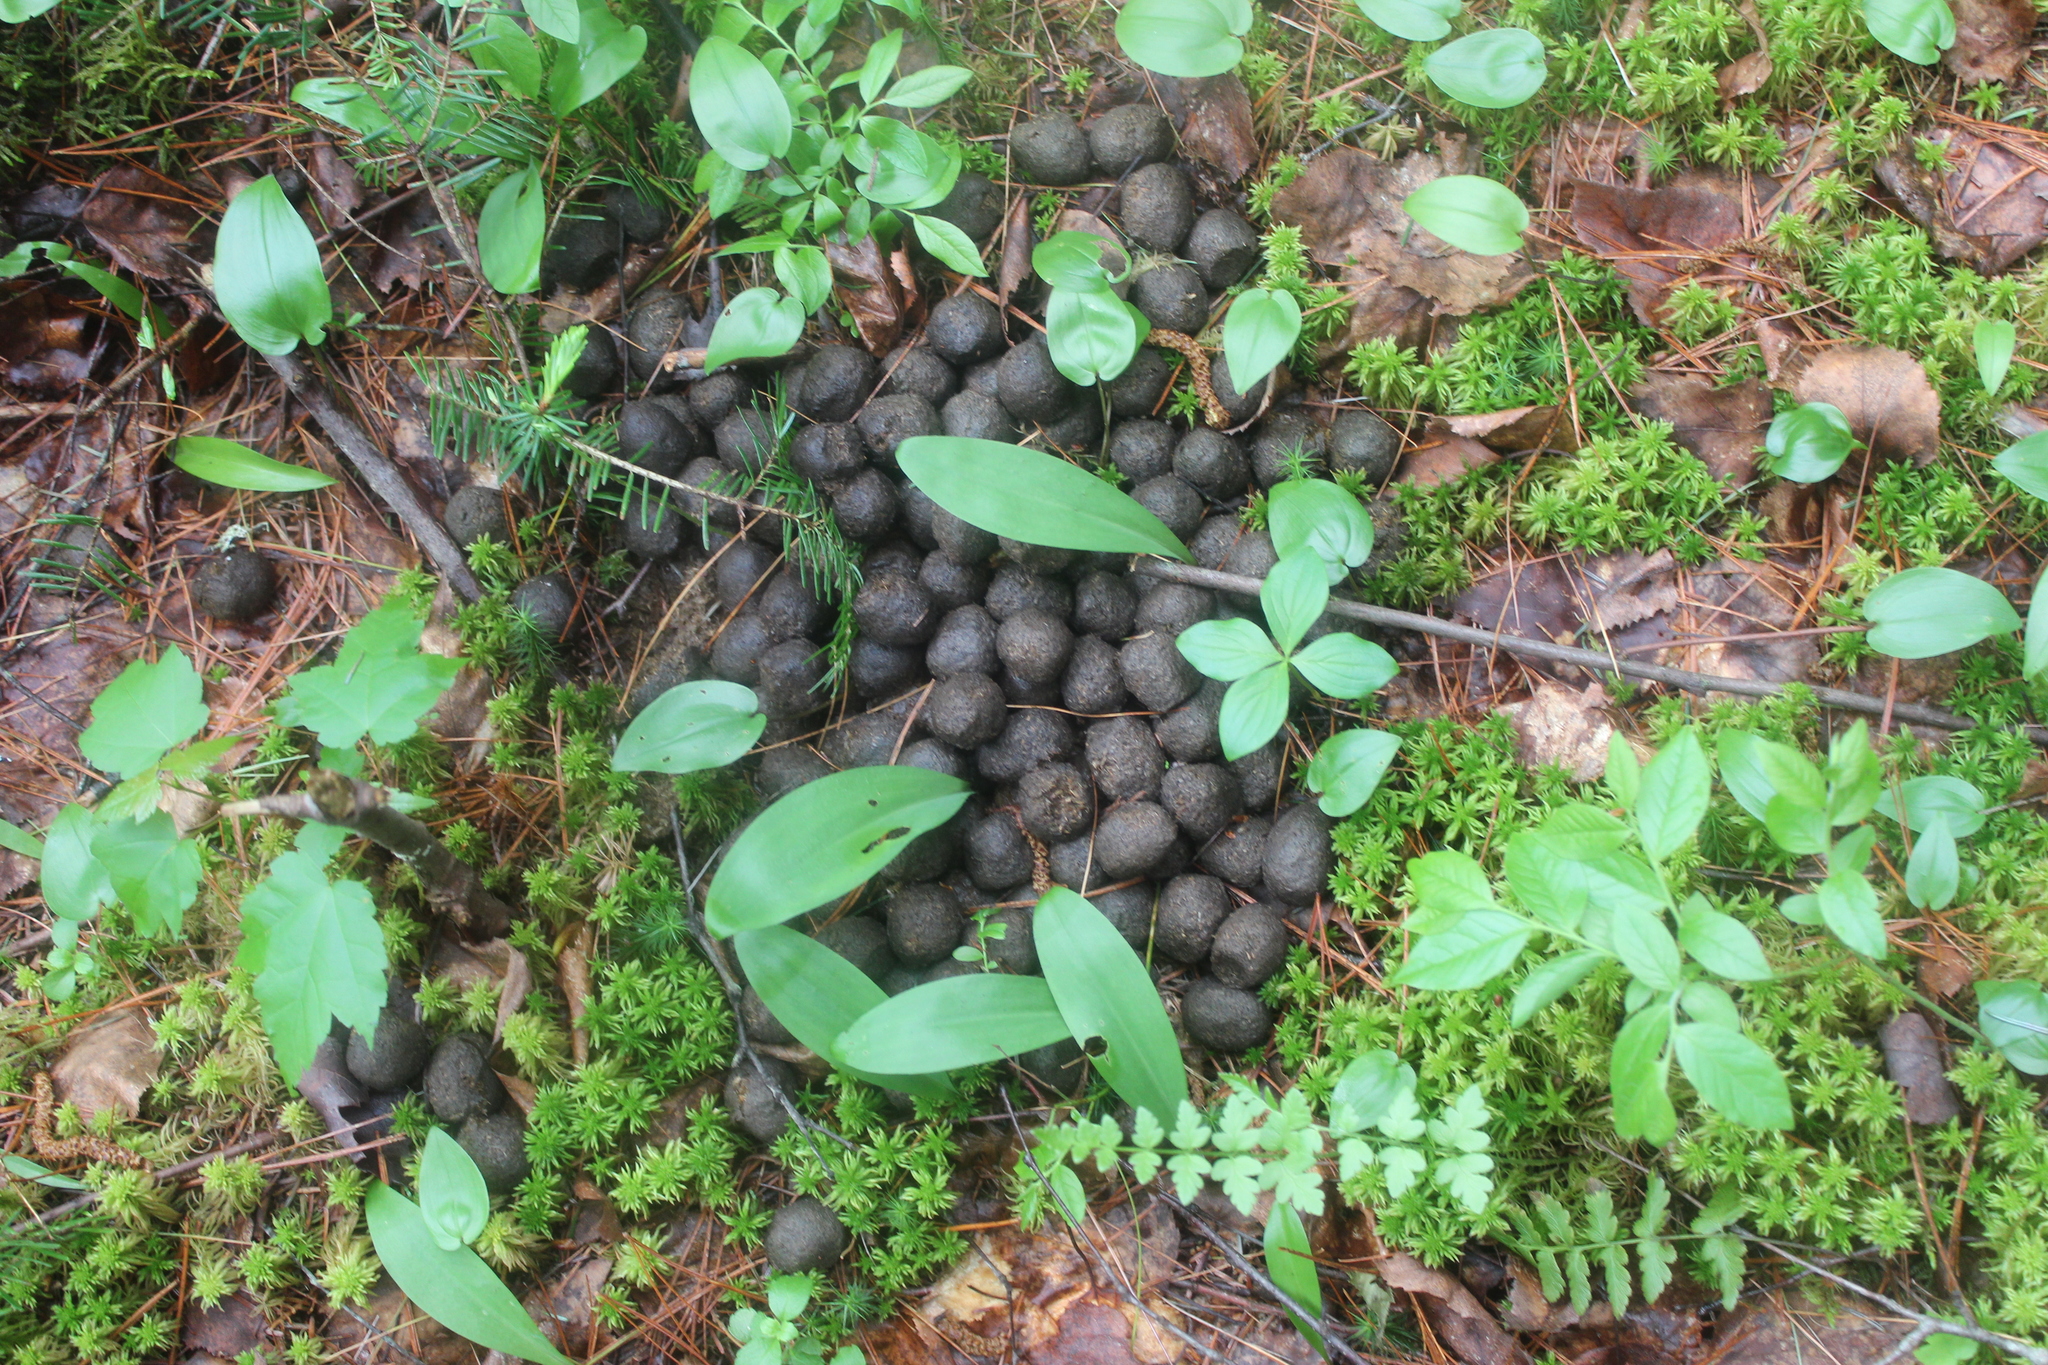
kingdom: Animalia
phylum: Chordata
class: Mammalia
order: Artiodactyla
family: Cervidae
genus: Alces
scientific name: Alces alces
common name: Moose
